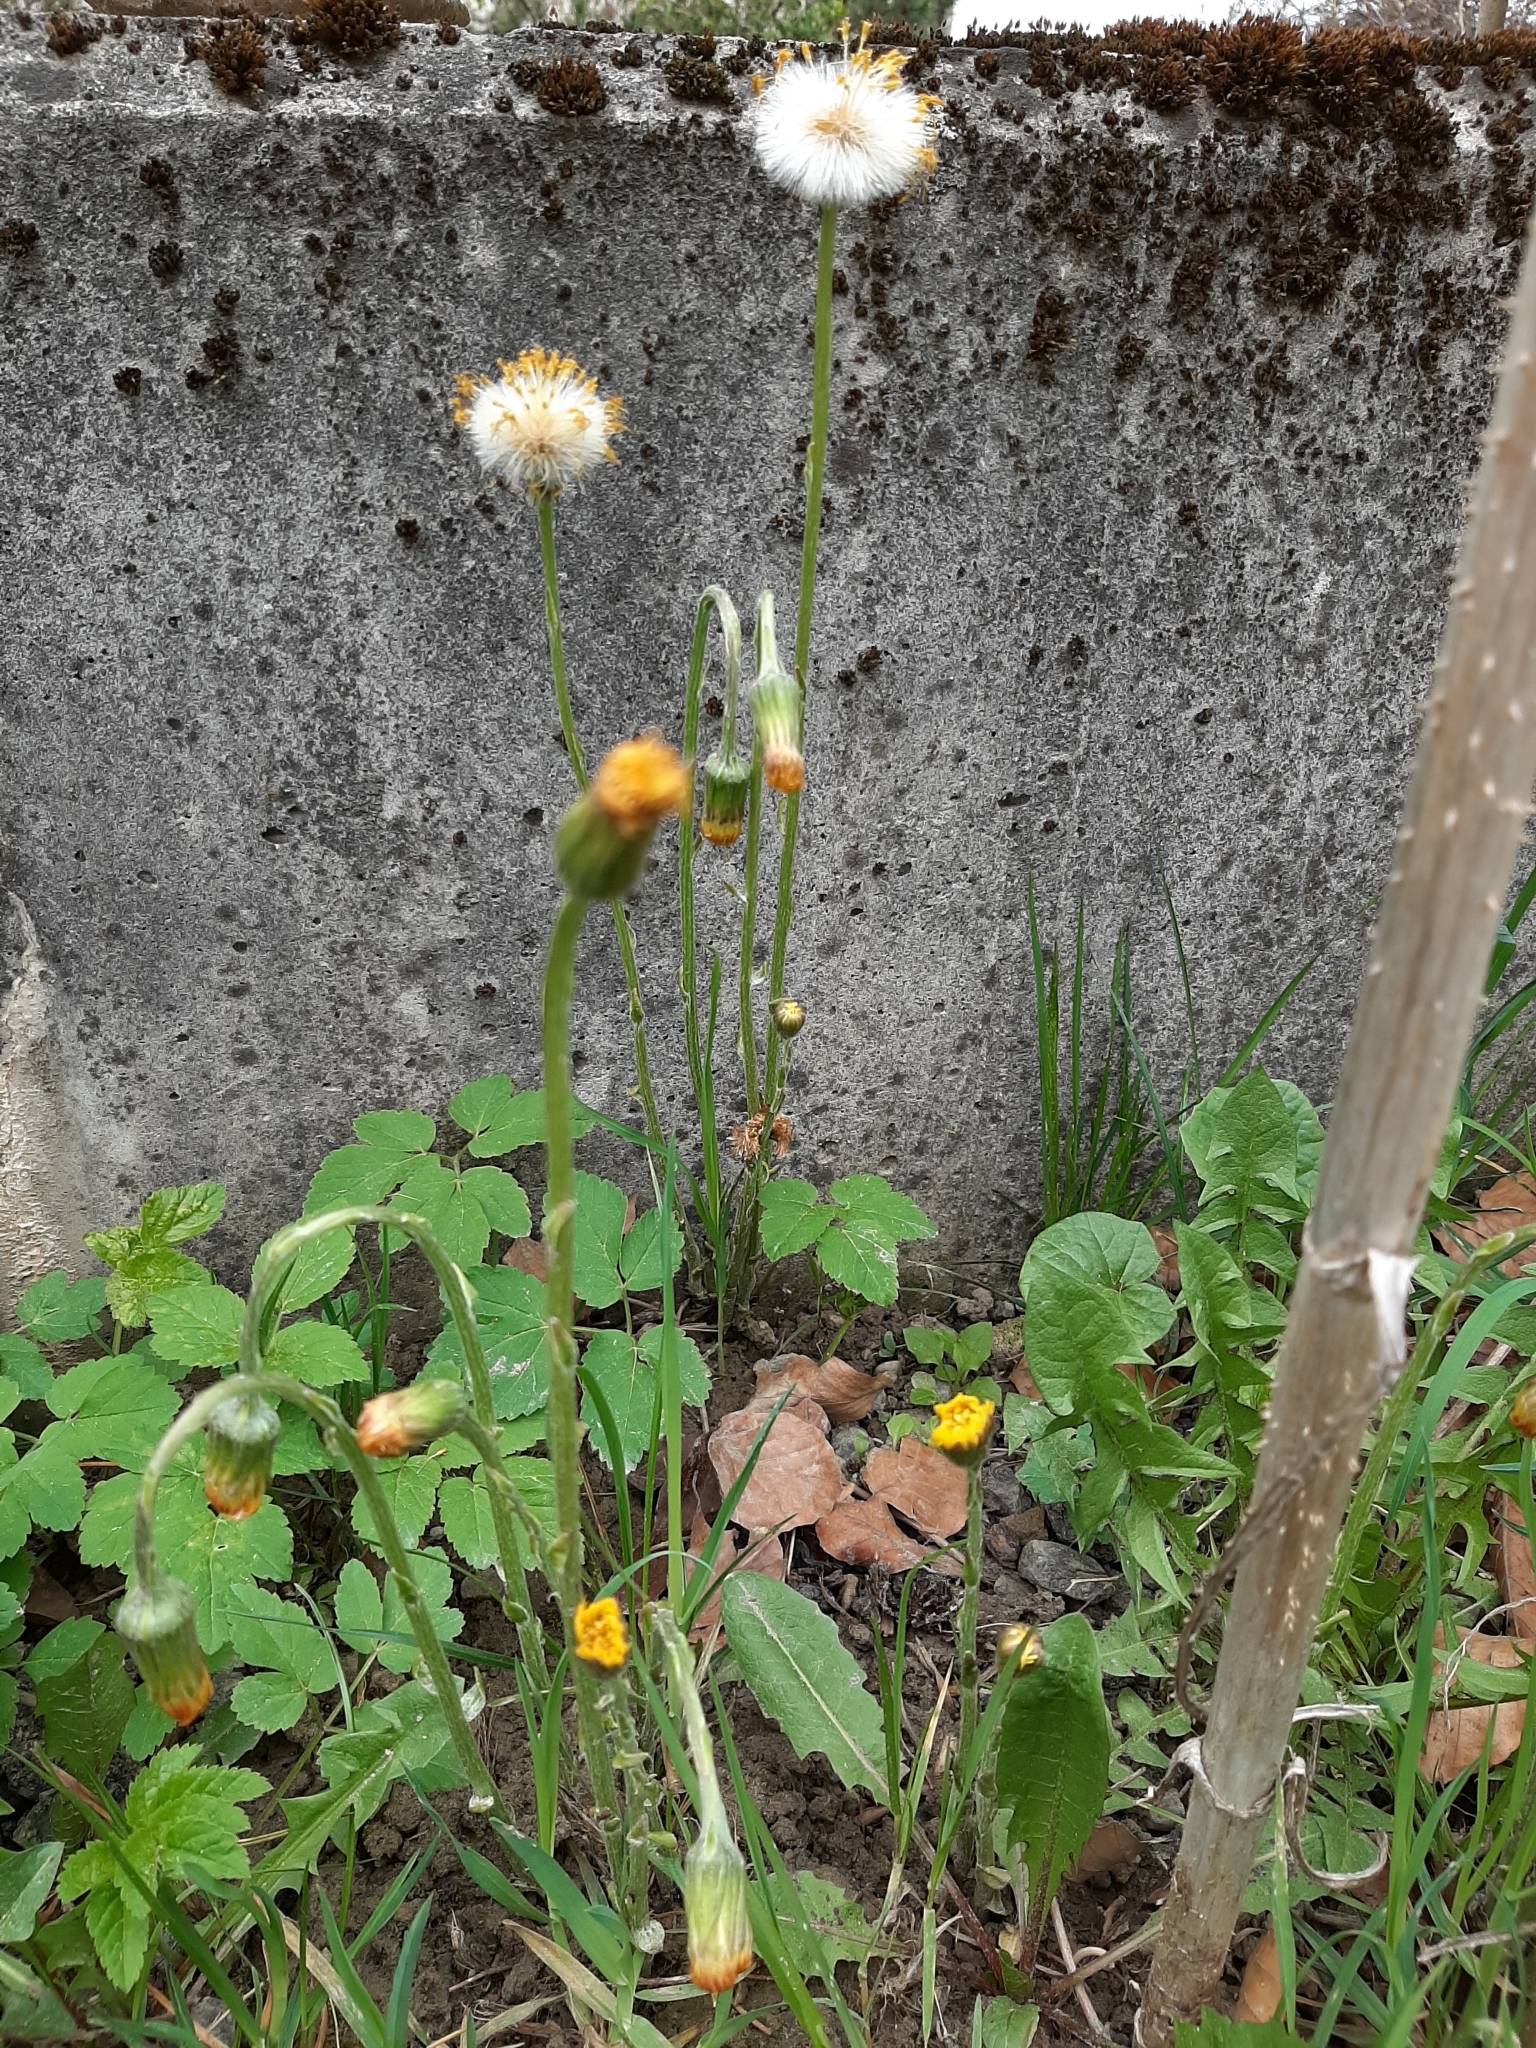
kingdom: Plantae
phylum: Tracheophyta
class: Magnoliopsida
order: Asterales
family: Asteraceae
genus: Tussilago
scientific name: Tussilago farfara
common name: Coltsfoot
